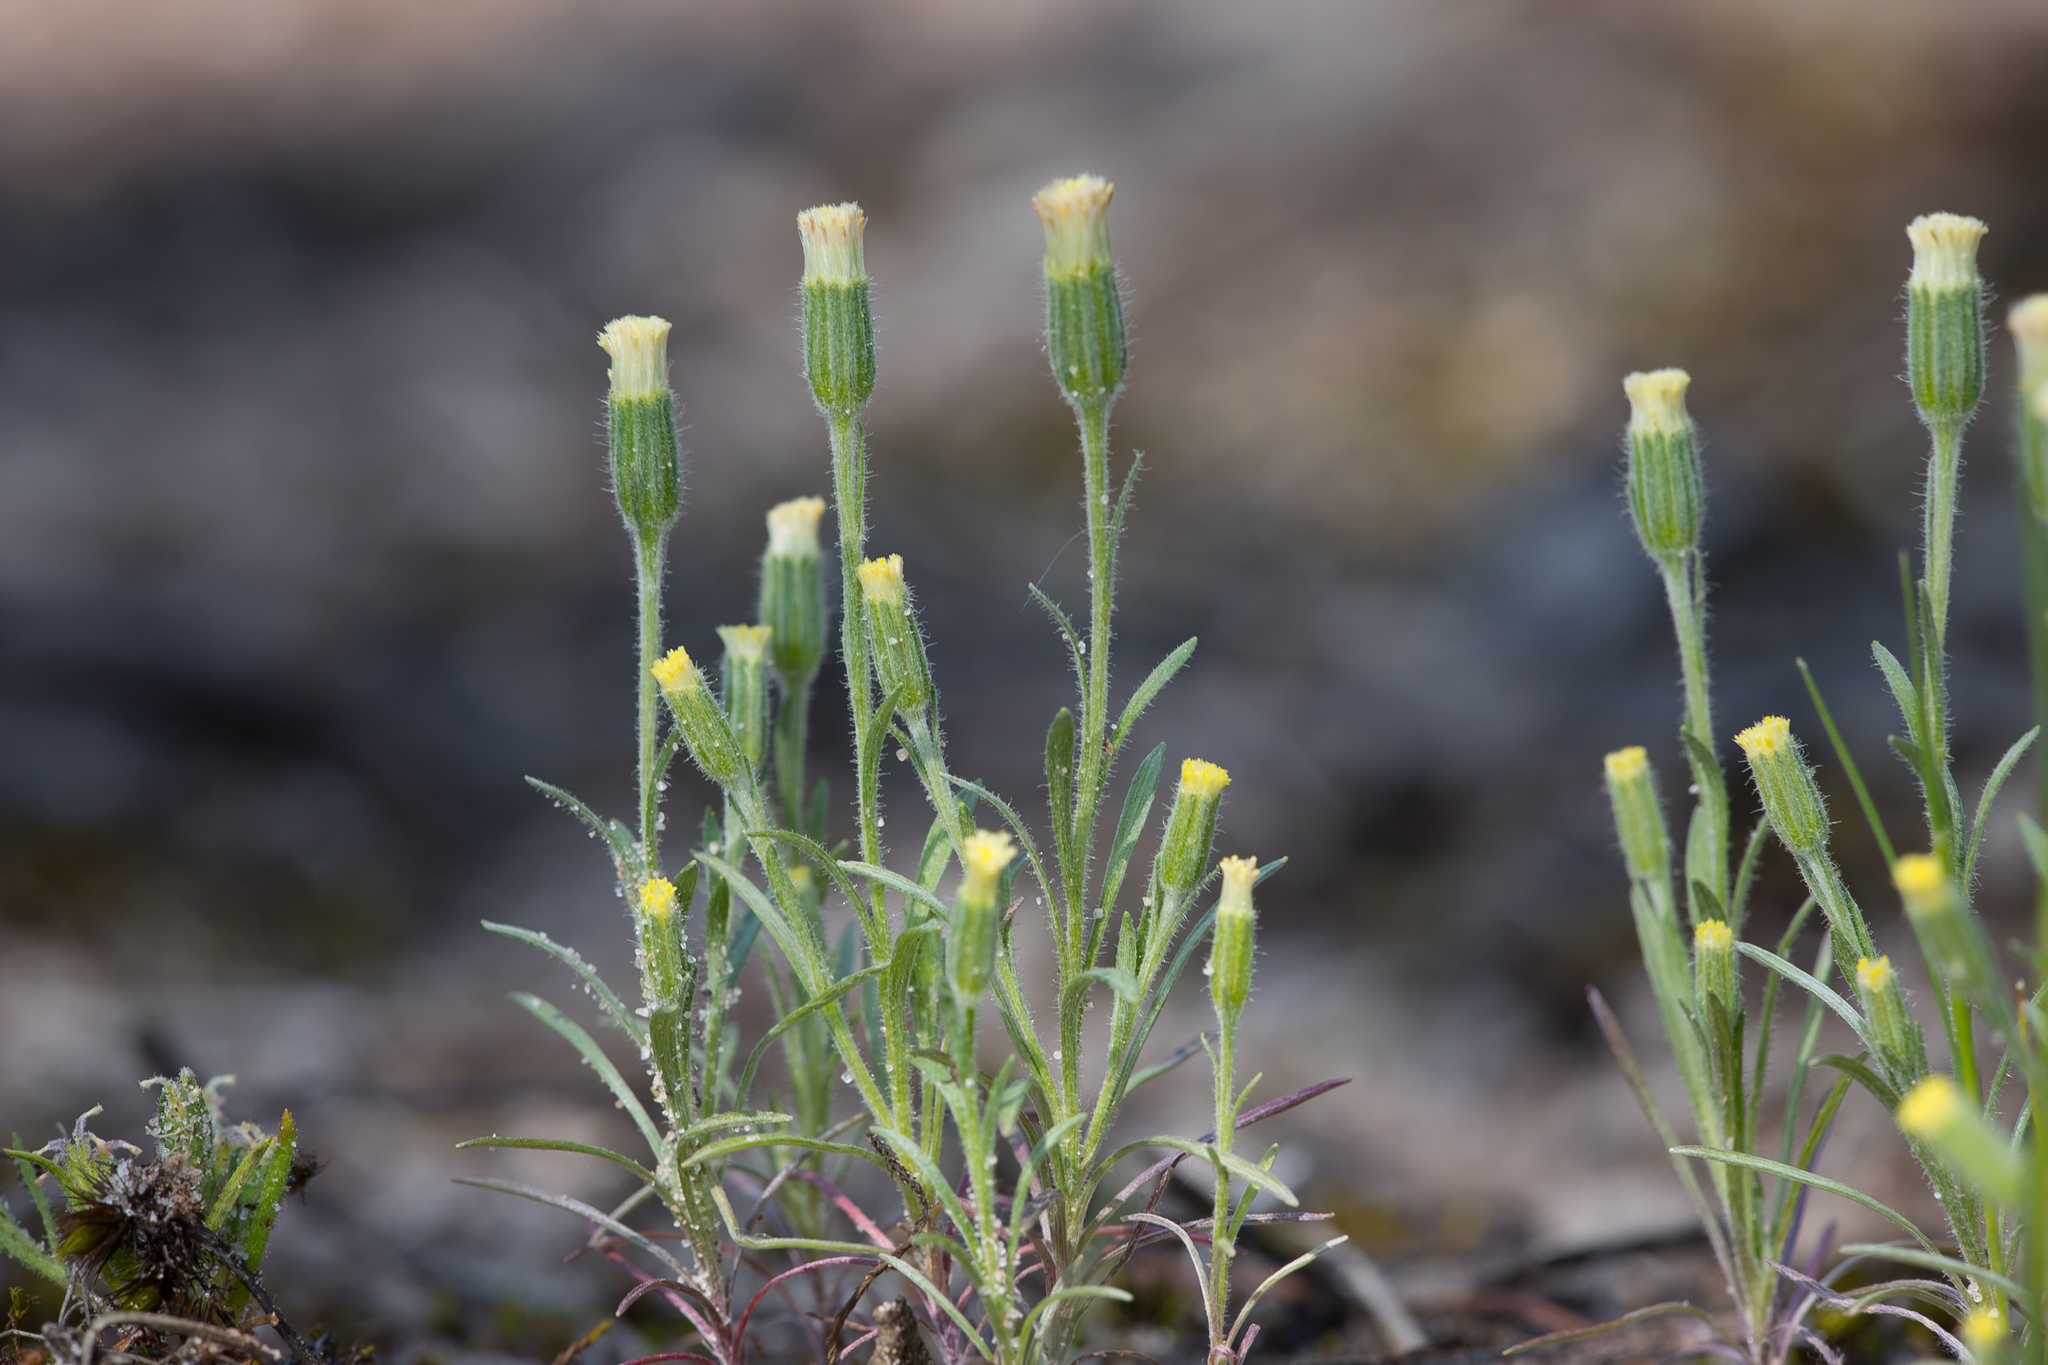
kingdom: Plantae
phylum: Tracheophyta
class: Magnoliopsida
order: Asterales
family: Asteraceae
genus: Millotia
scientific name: Millotia tenuifolia
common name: Soft millotia
